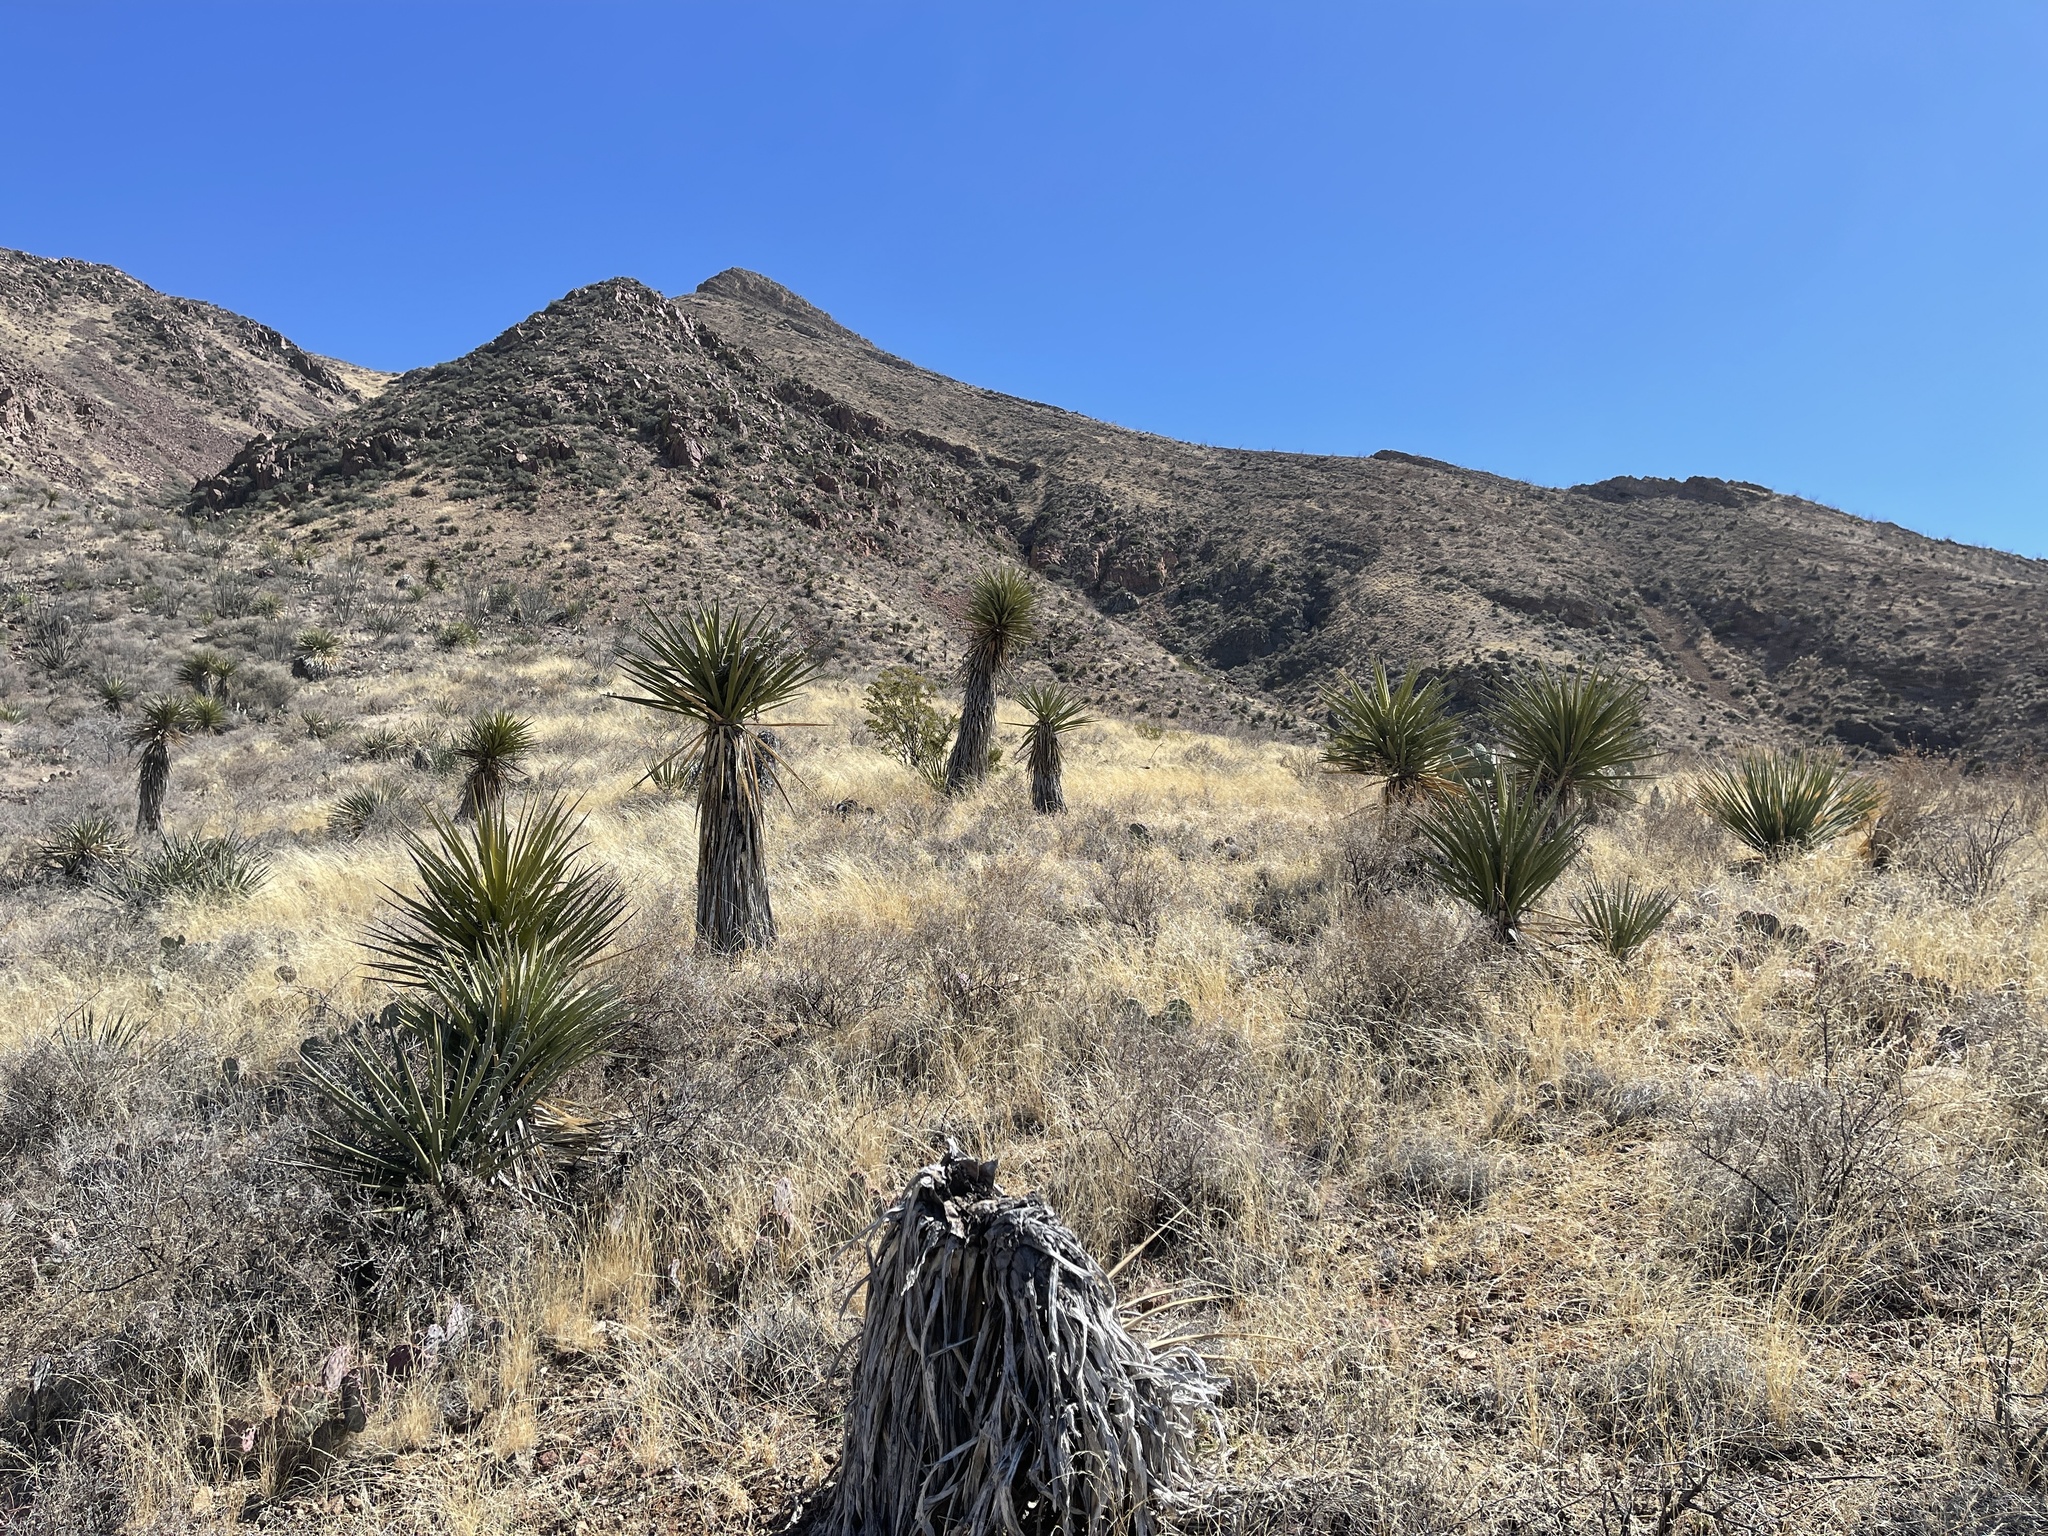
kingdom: Plantae
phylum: Tracheophyta
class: Liliopsida
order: Asparagales
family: Asparagaceae
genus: Yucca
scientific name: Yucca treculiana
